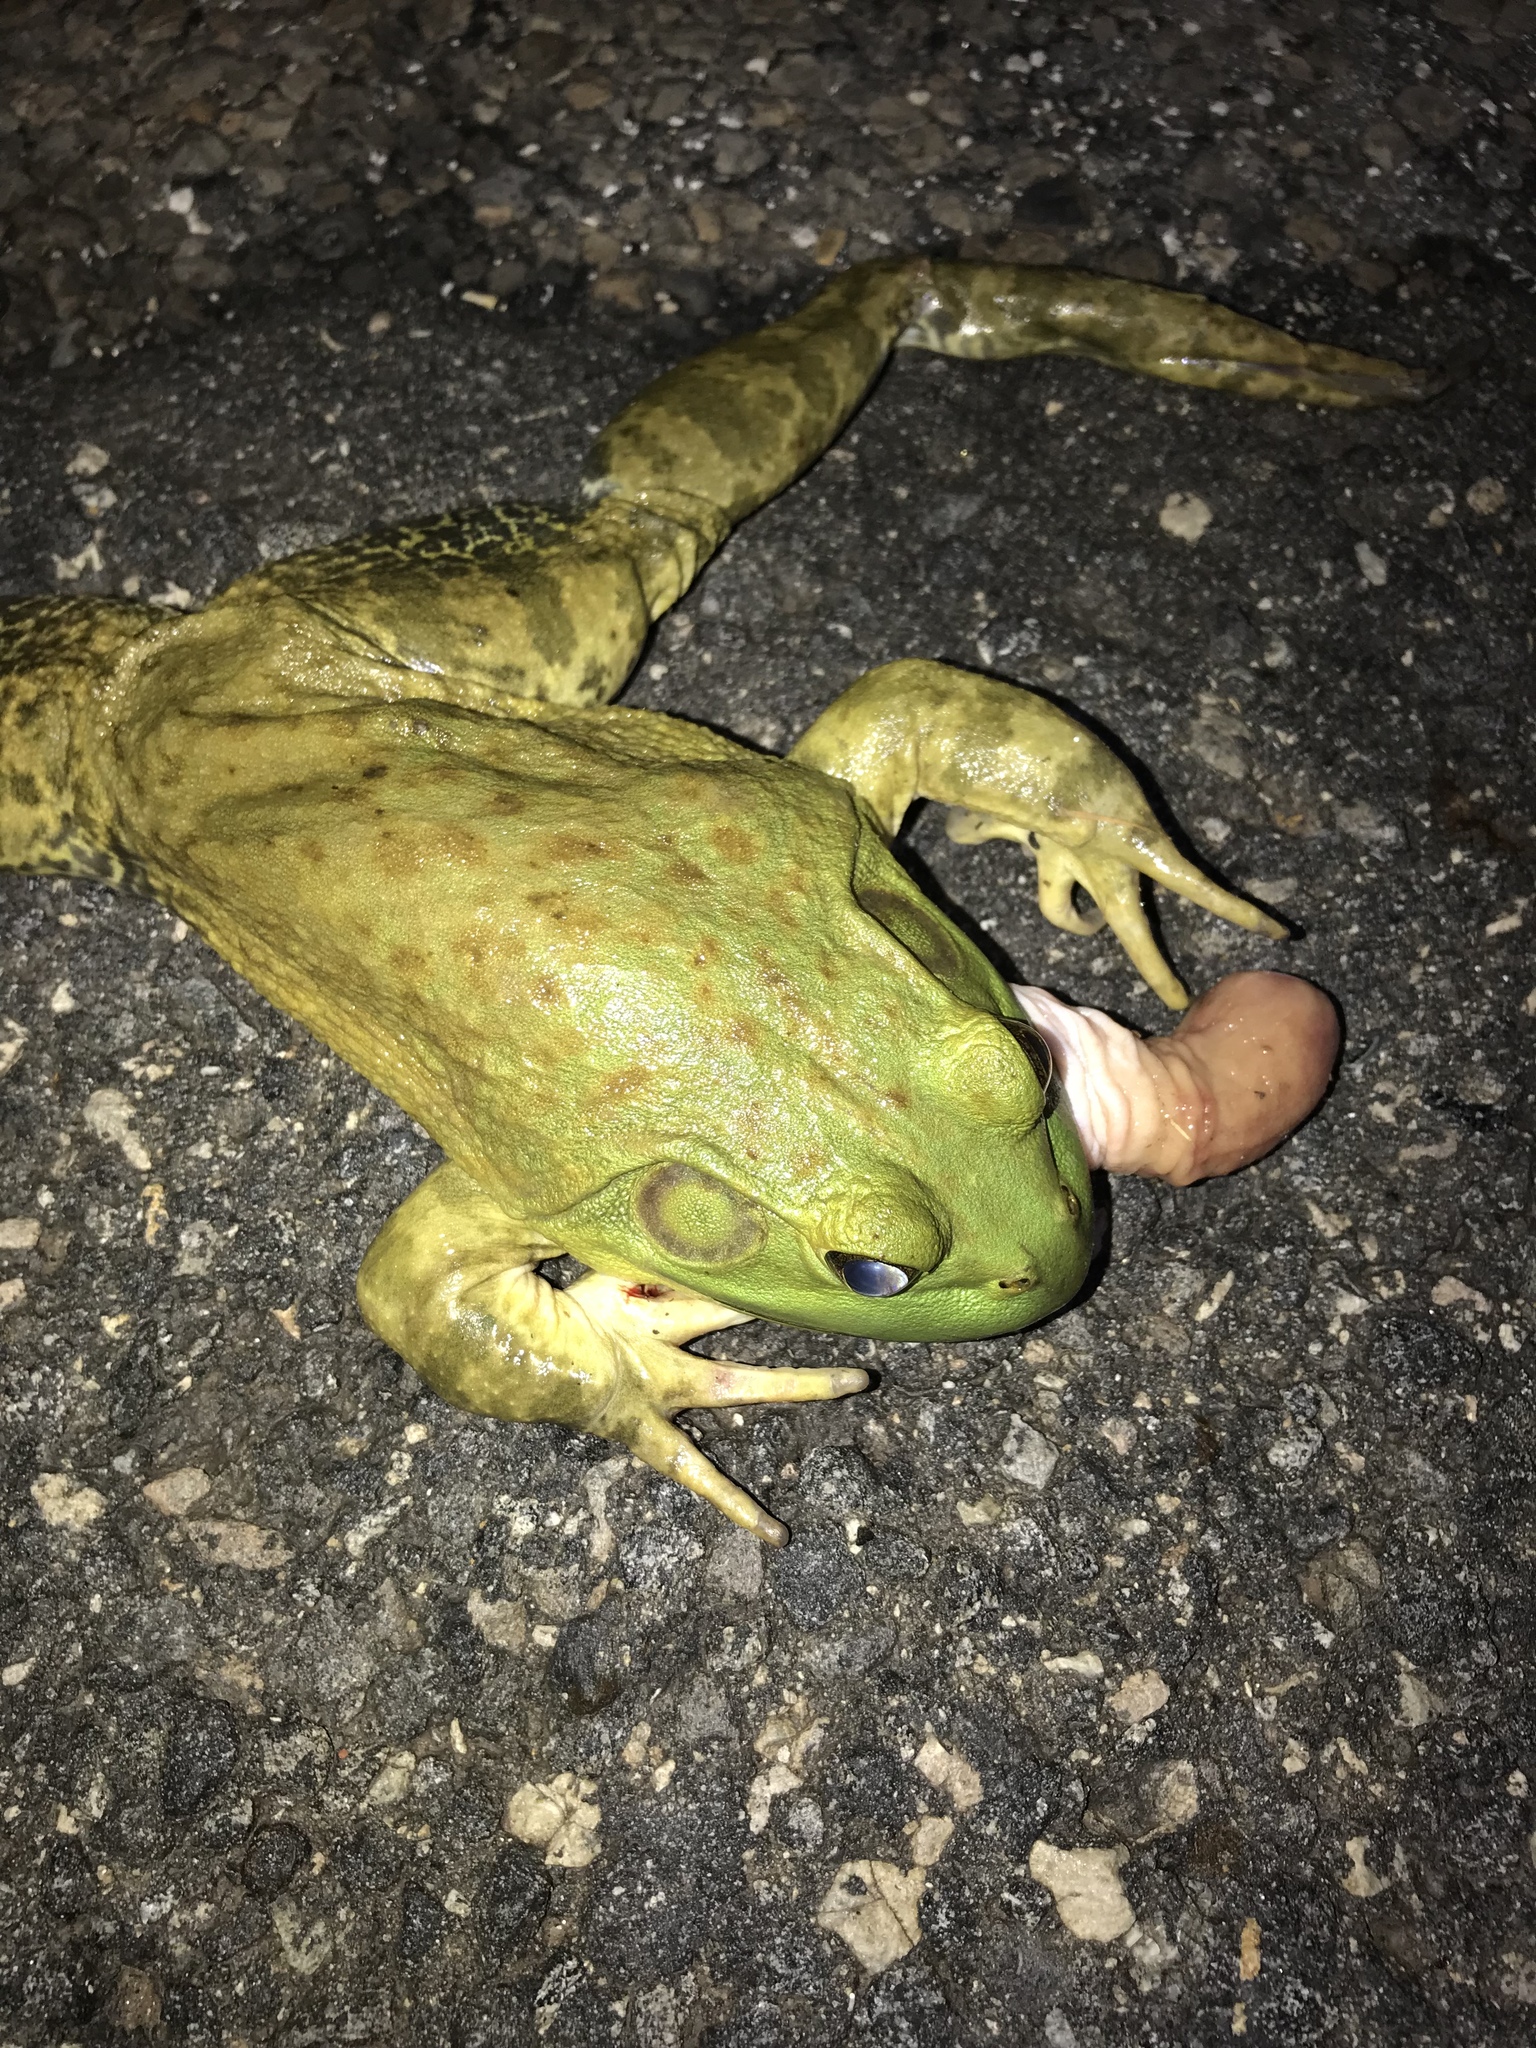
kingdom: Animalia
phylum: Chordata
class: Amphibia
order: Anura
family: Ranidae
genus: Lithobates
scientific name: Lithobates catesbeianus
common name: American bullfrog
